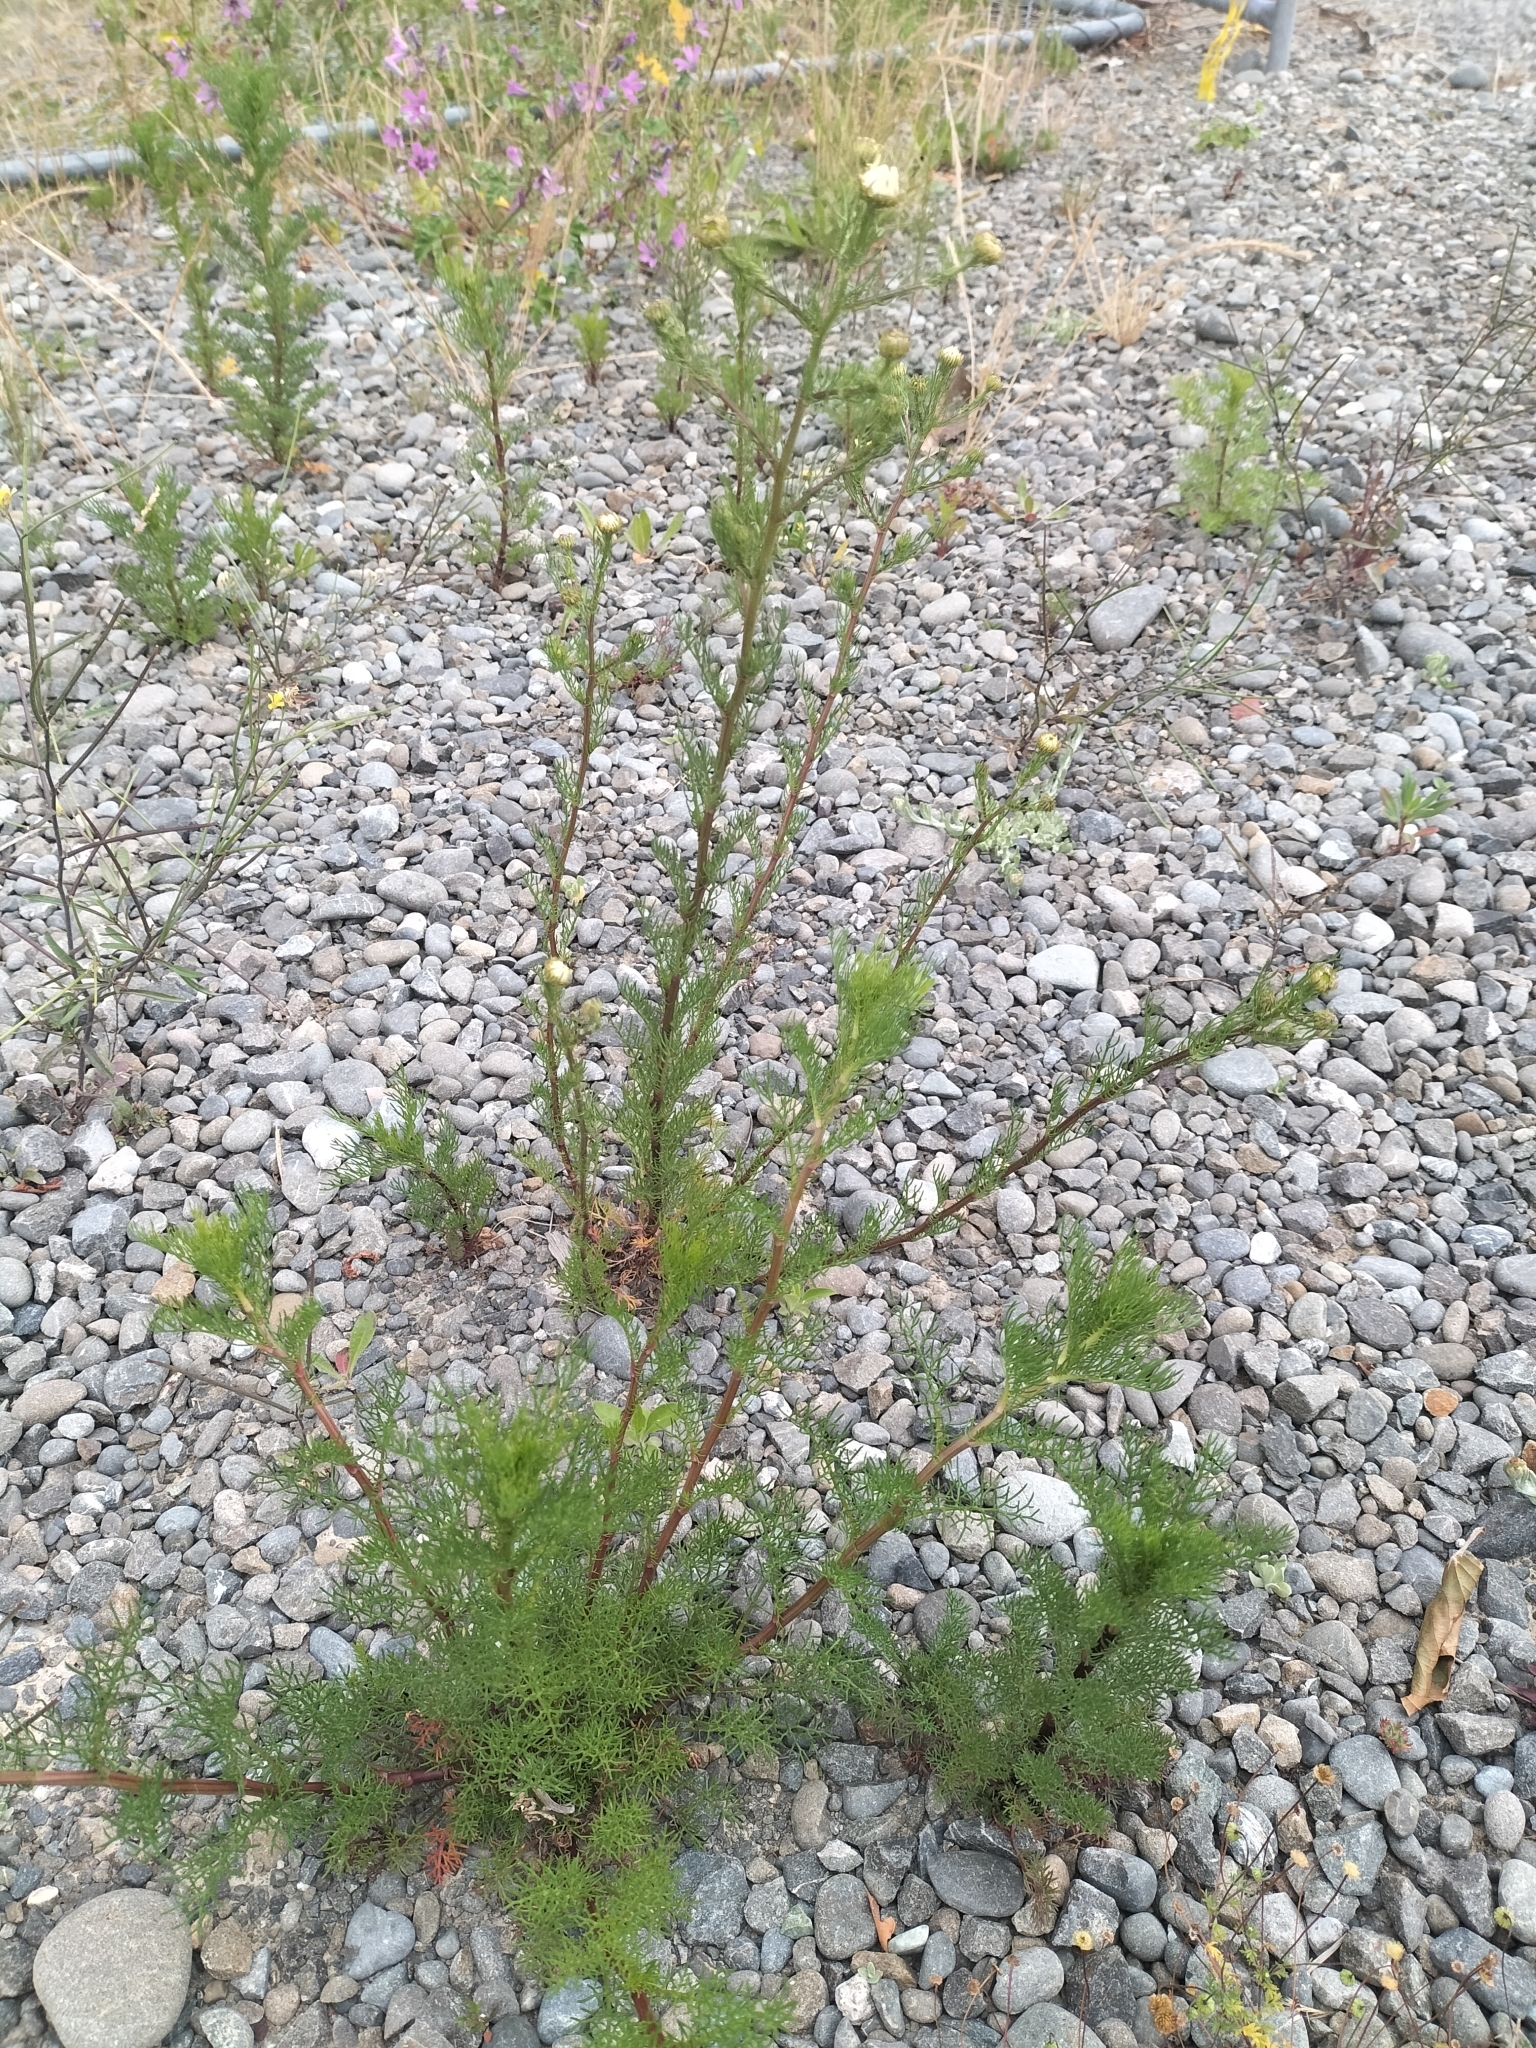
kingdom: Plantae
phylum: Tracheophyta
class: Magnoliopsida
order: Asterales
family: Asteraceae
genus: Tripleurospermum
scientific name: Tripleurospermum inodorum
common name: Scentless mayweed
